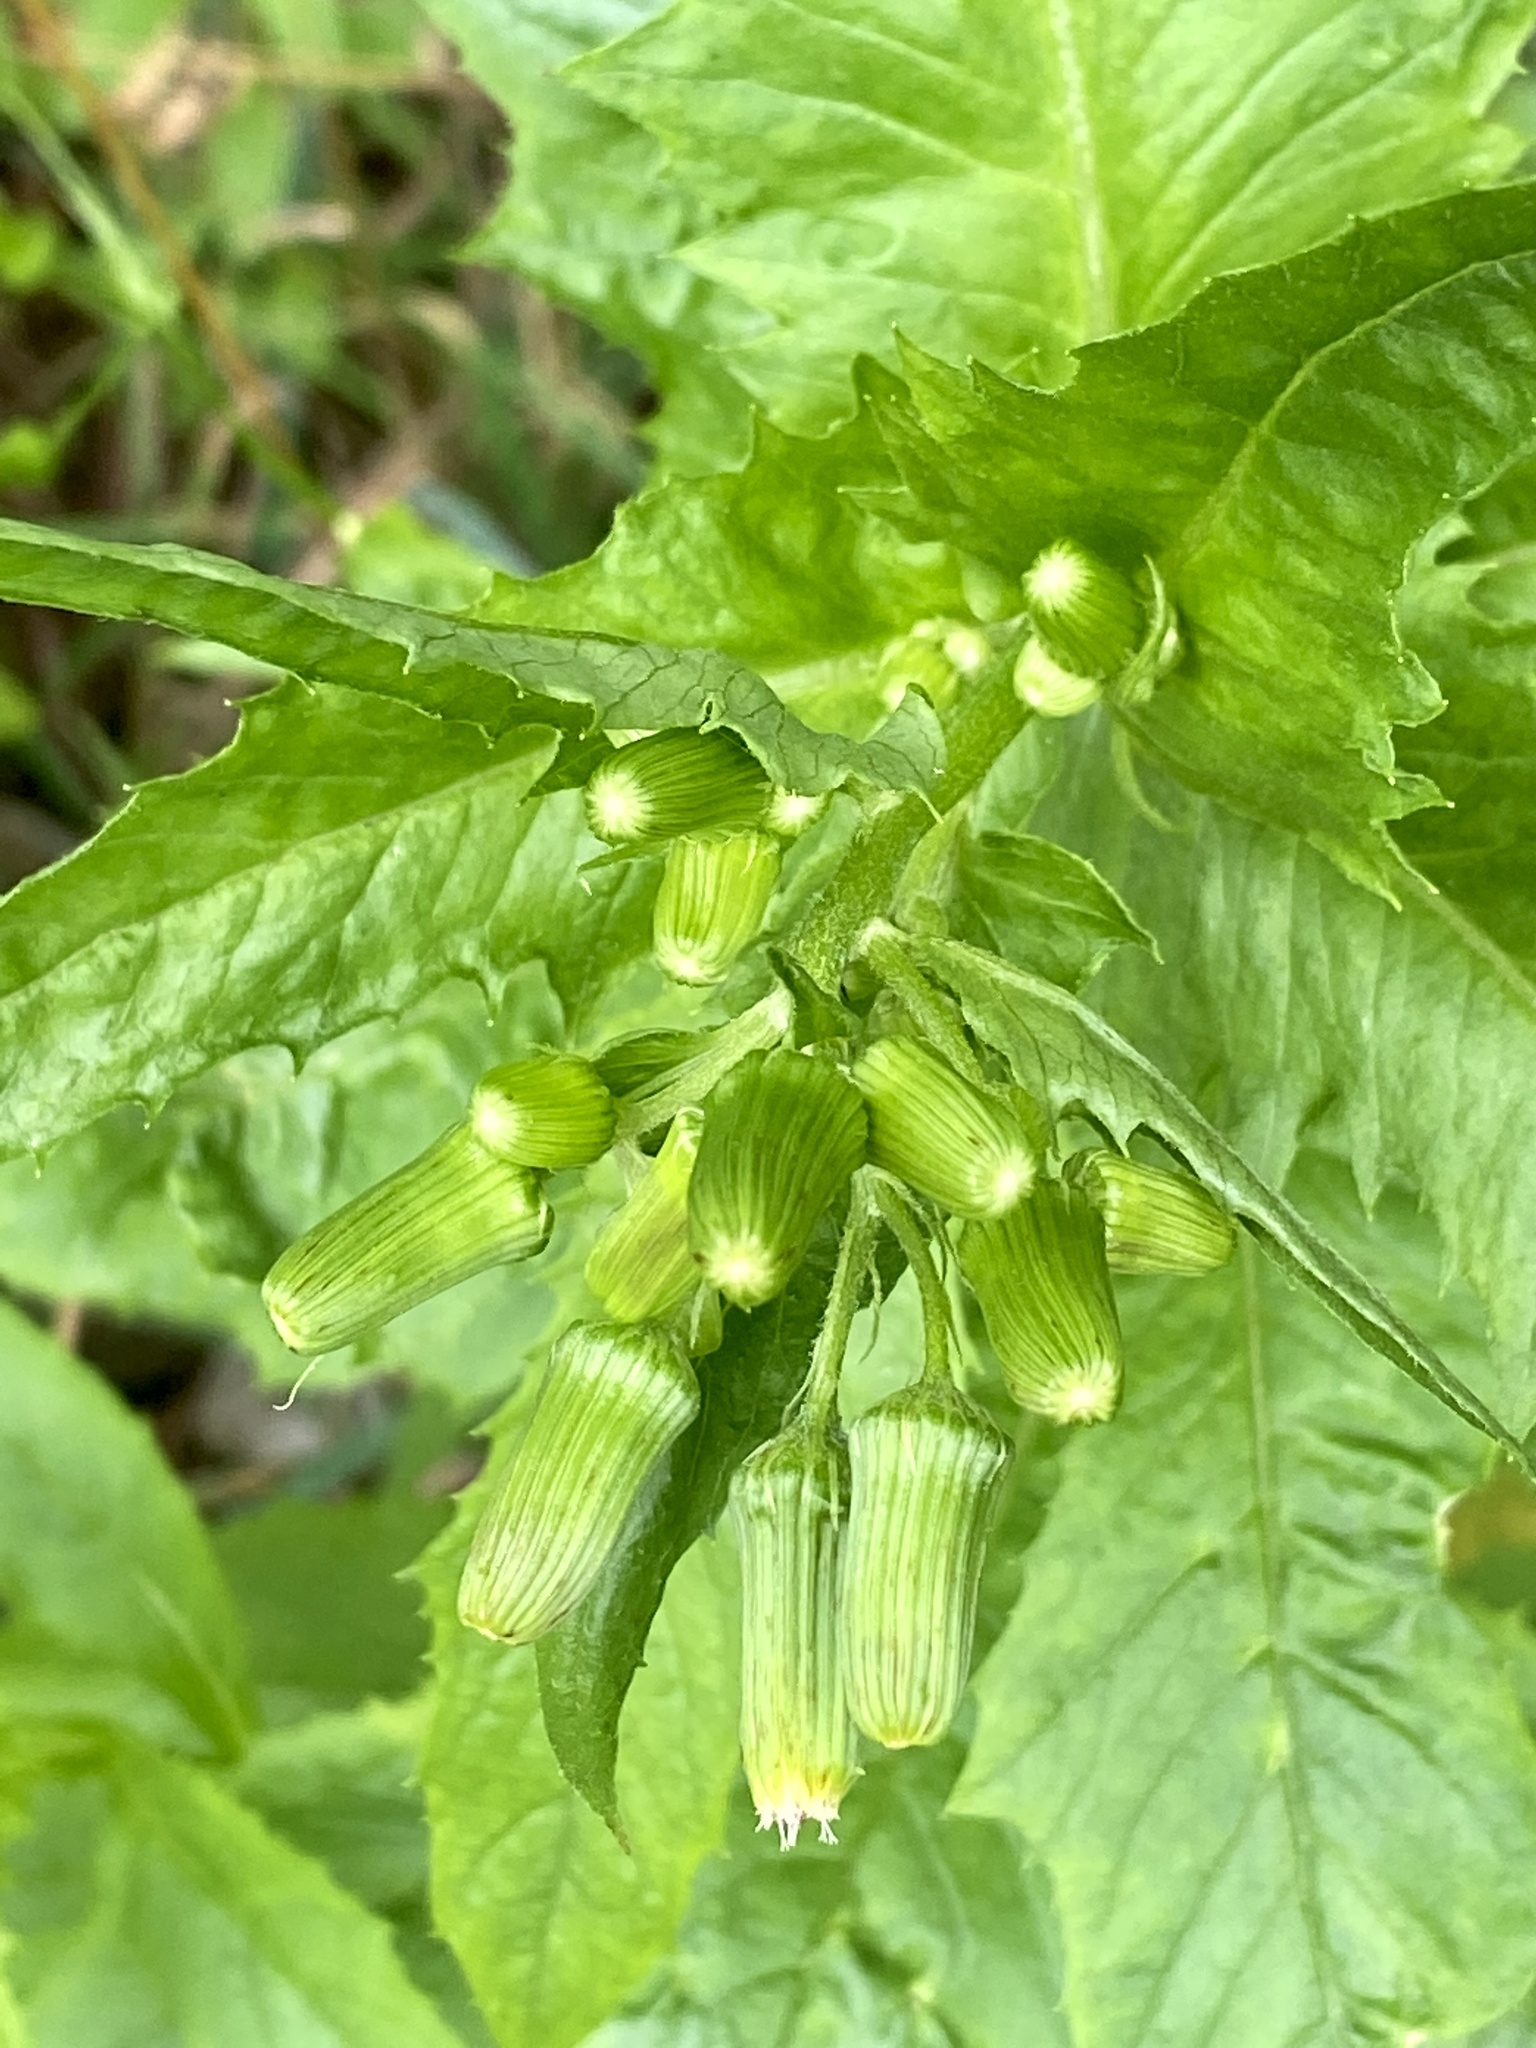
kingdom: Plantae
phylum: Tracheophyta
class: Magnoliopsida
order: Asterales
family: Asteraceae
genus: Erechtites
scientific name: Erechtites hieraciifolius
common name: American burnweed
